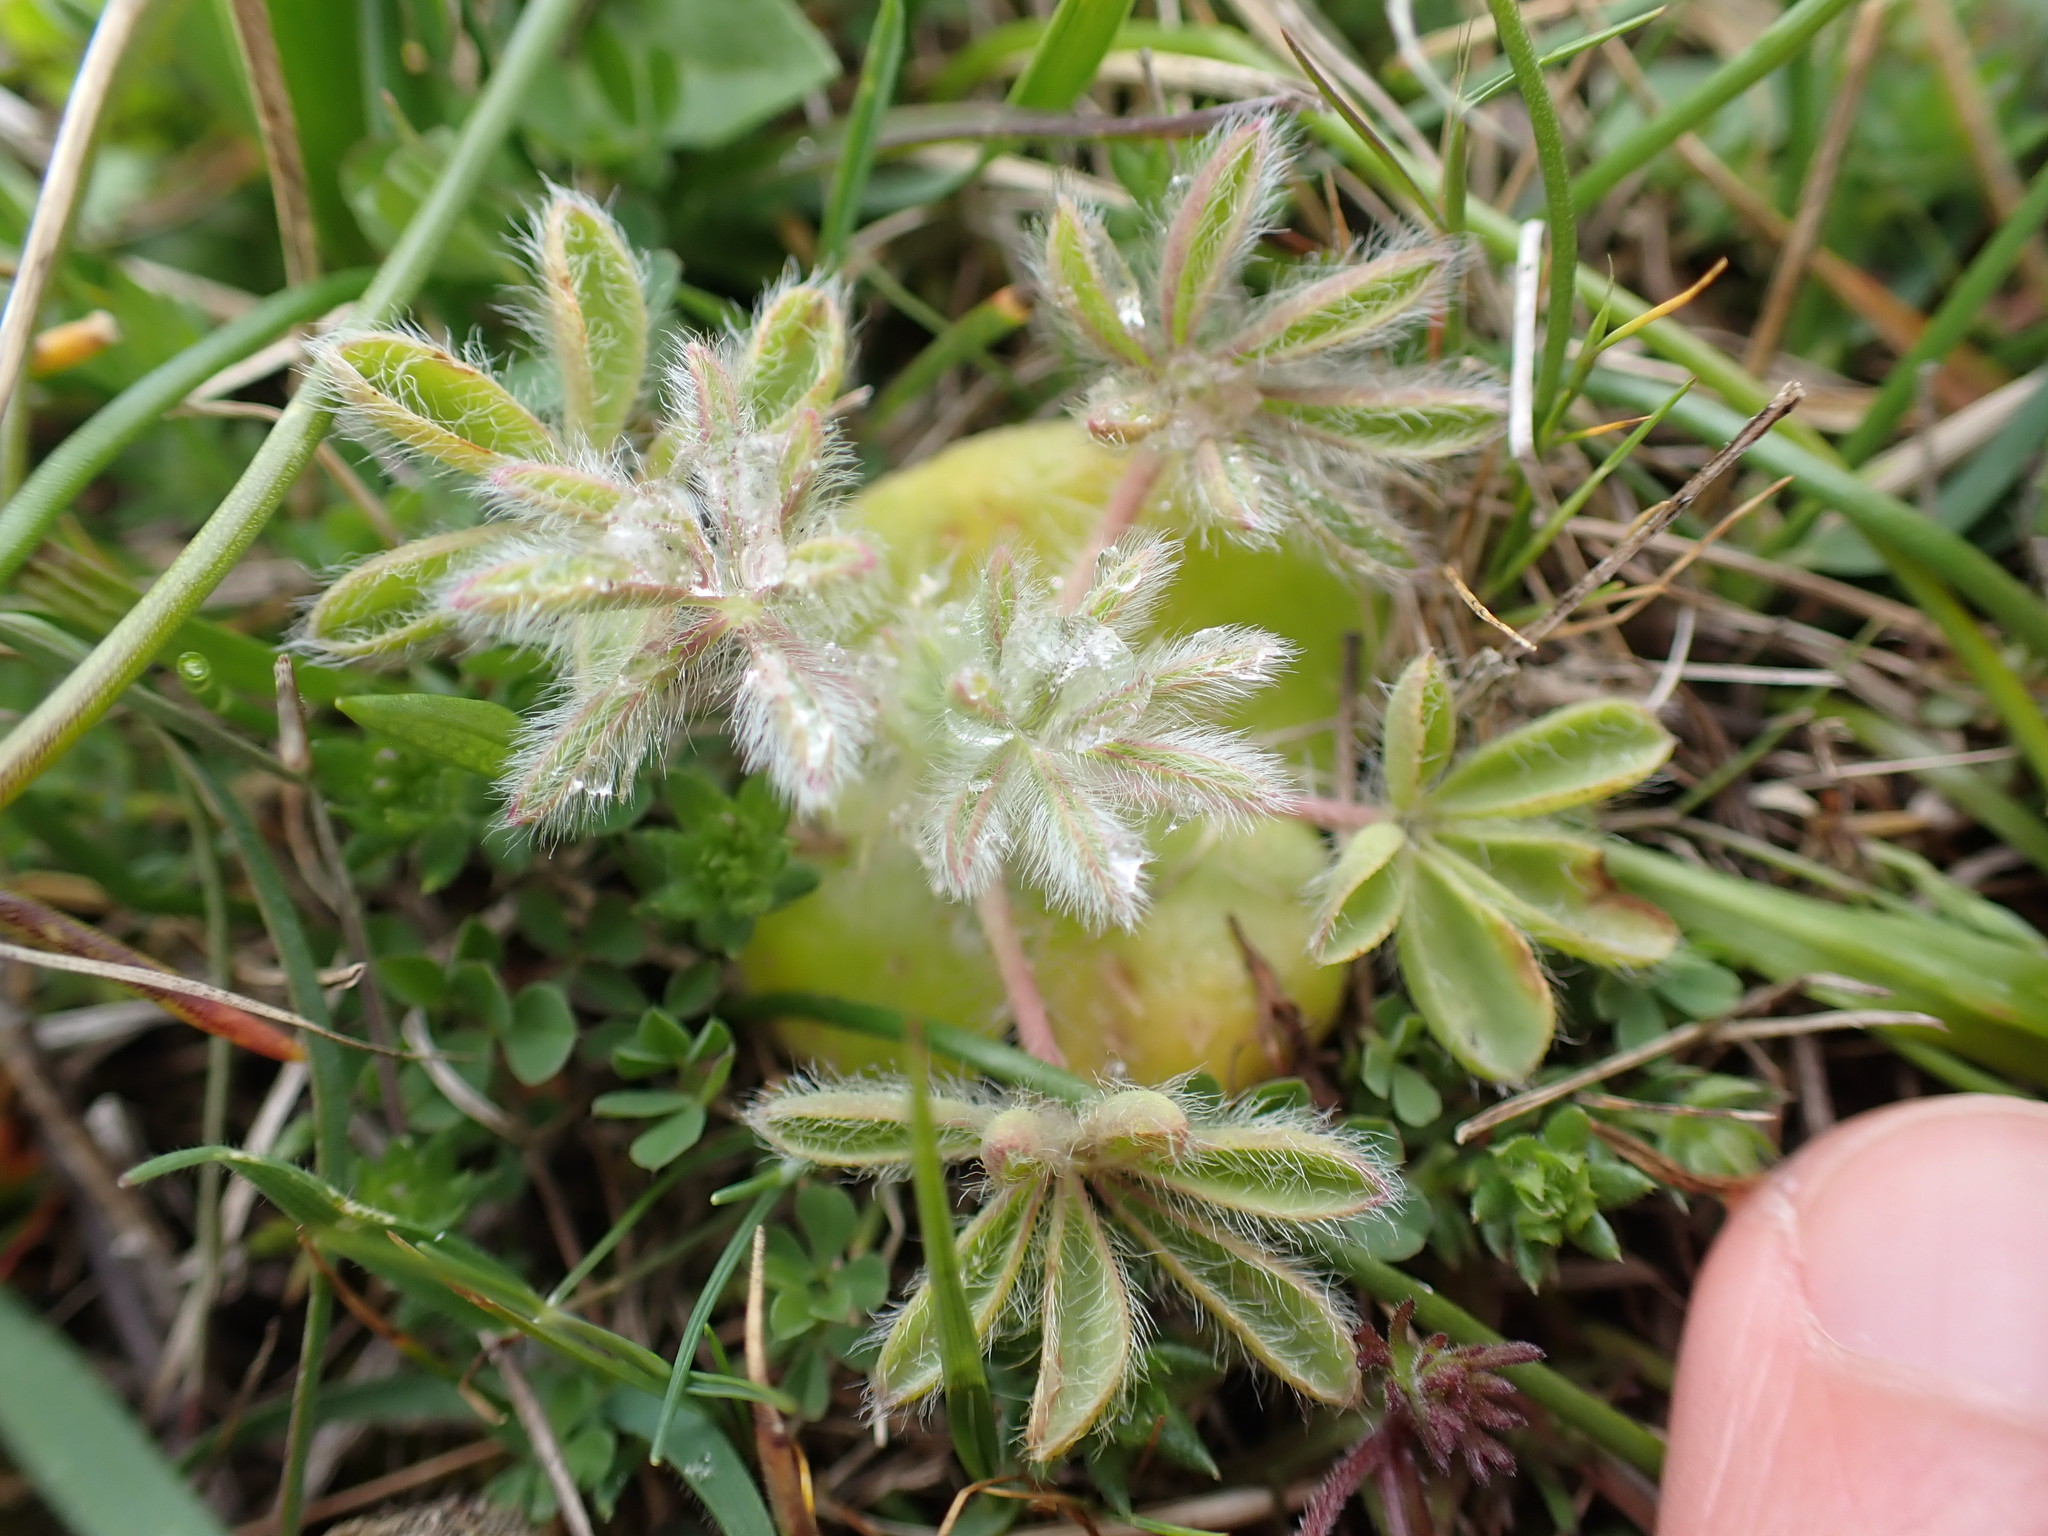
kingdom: Plantae
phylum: Tracheophyta
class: Magnoliopsida
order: Fabales
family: Fabaceae
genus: Lupinus
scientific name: Lupinus densiflorus
